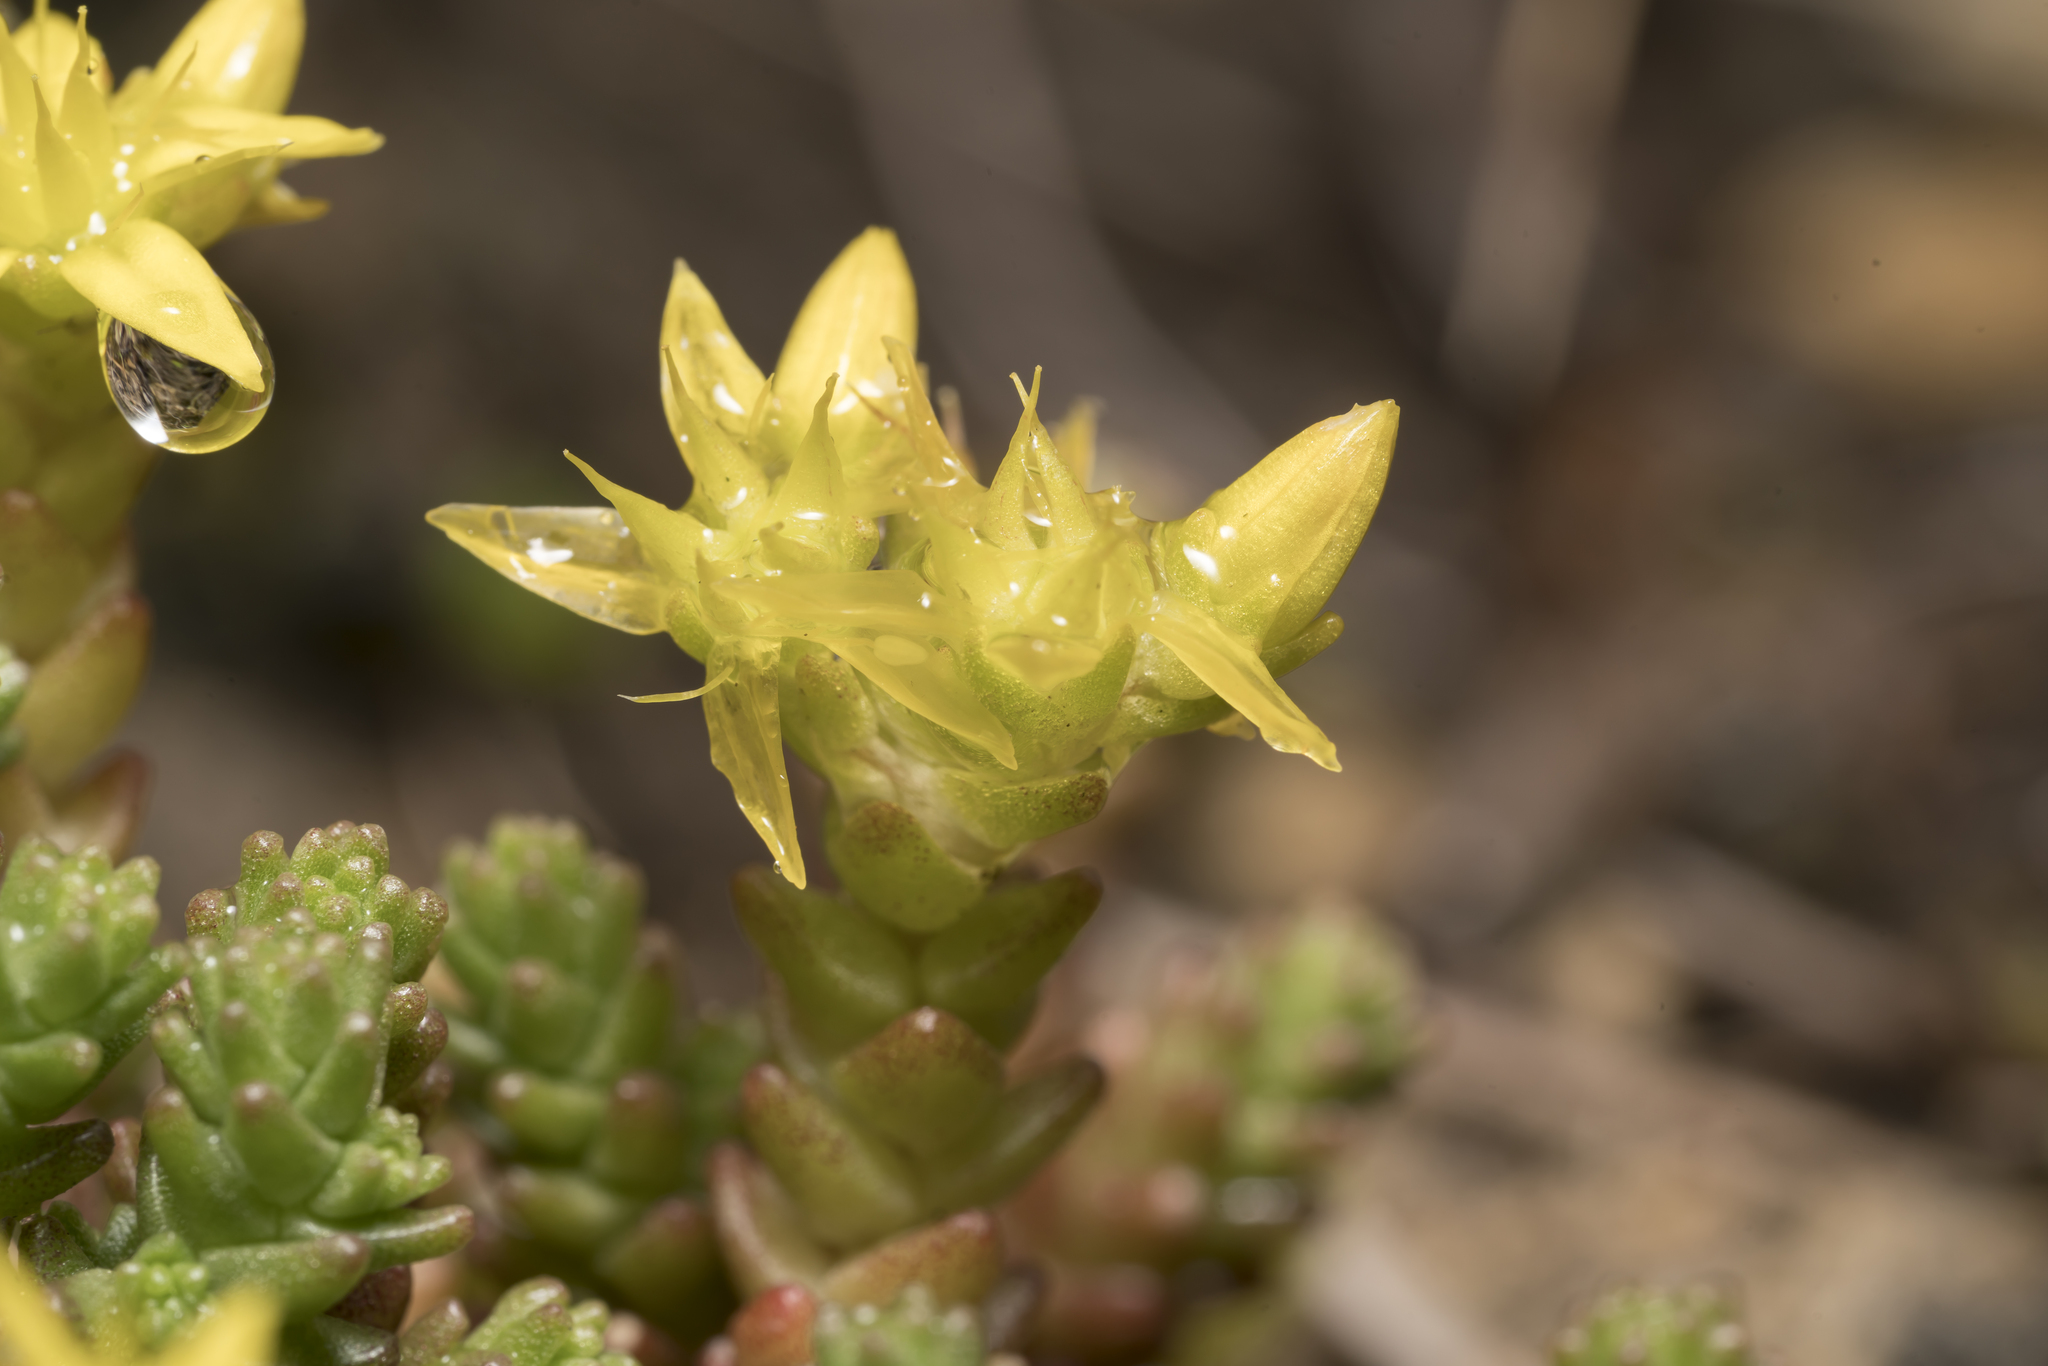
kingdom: Plantae
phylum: Tracheophyta
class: Magnoliopsida
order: Saxifragales
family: Crassulaceae
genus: Sedum
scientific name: Sedum acre
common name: Biting stonecrop
